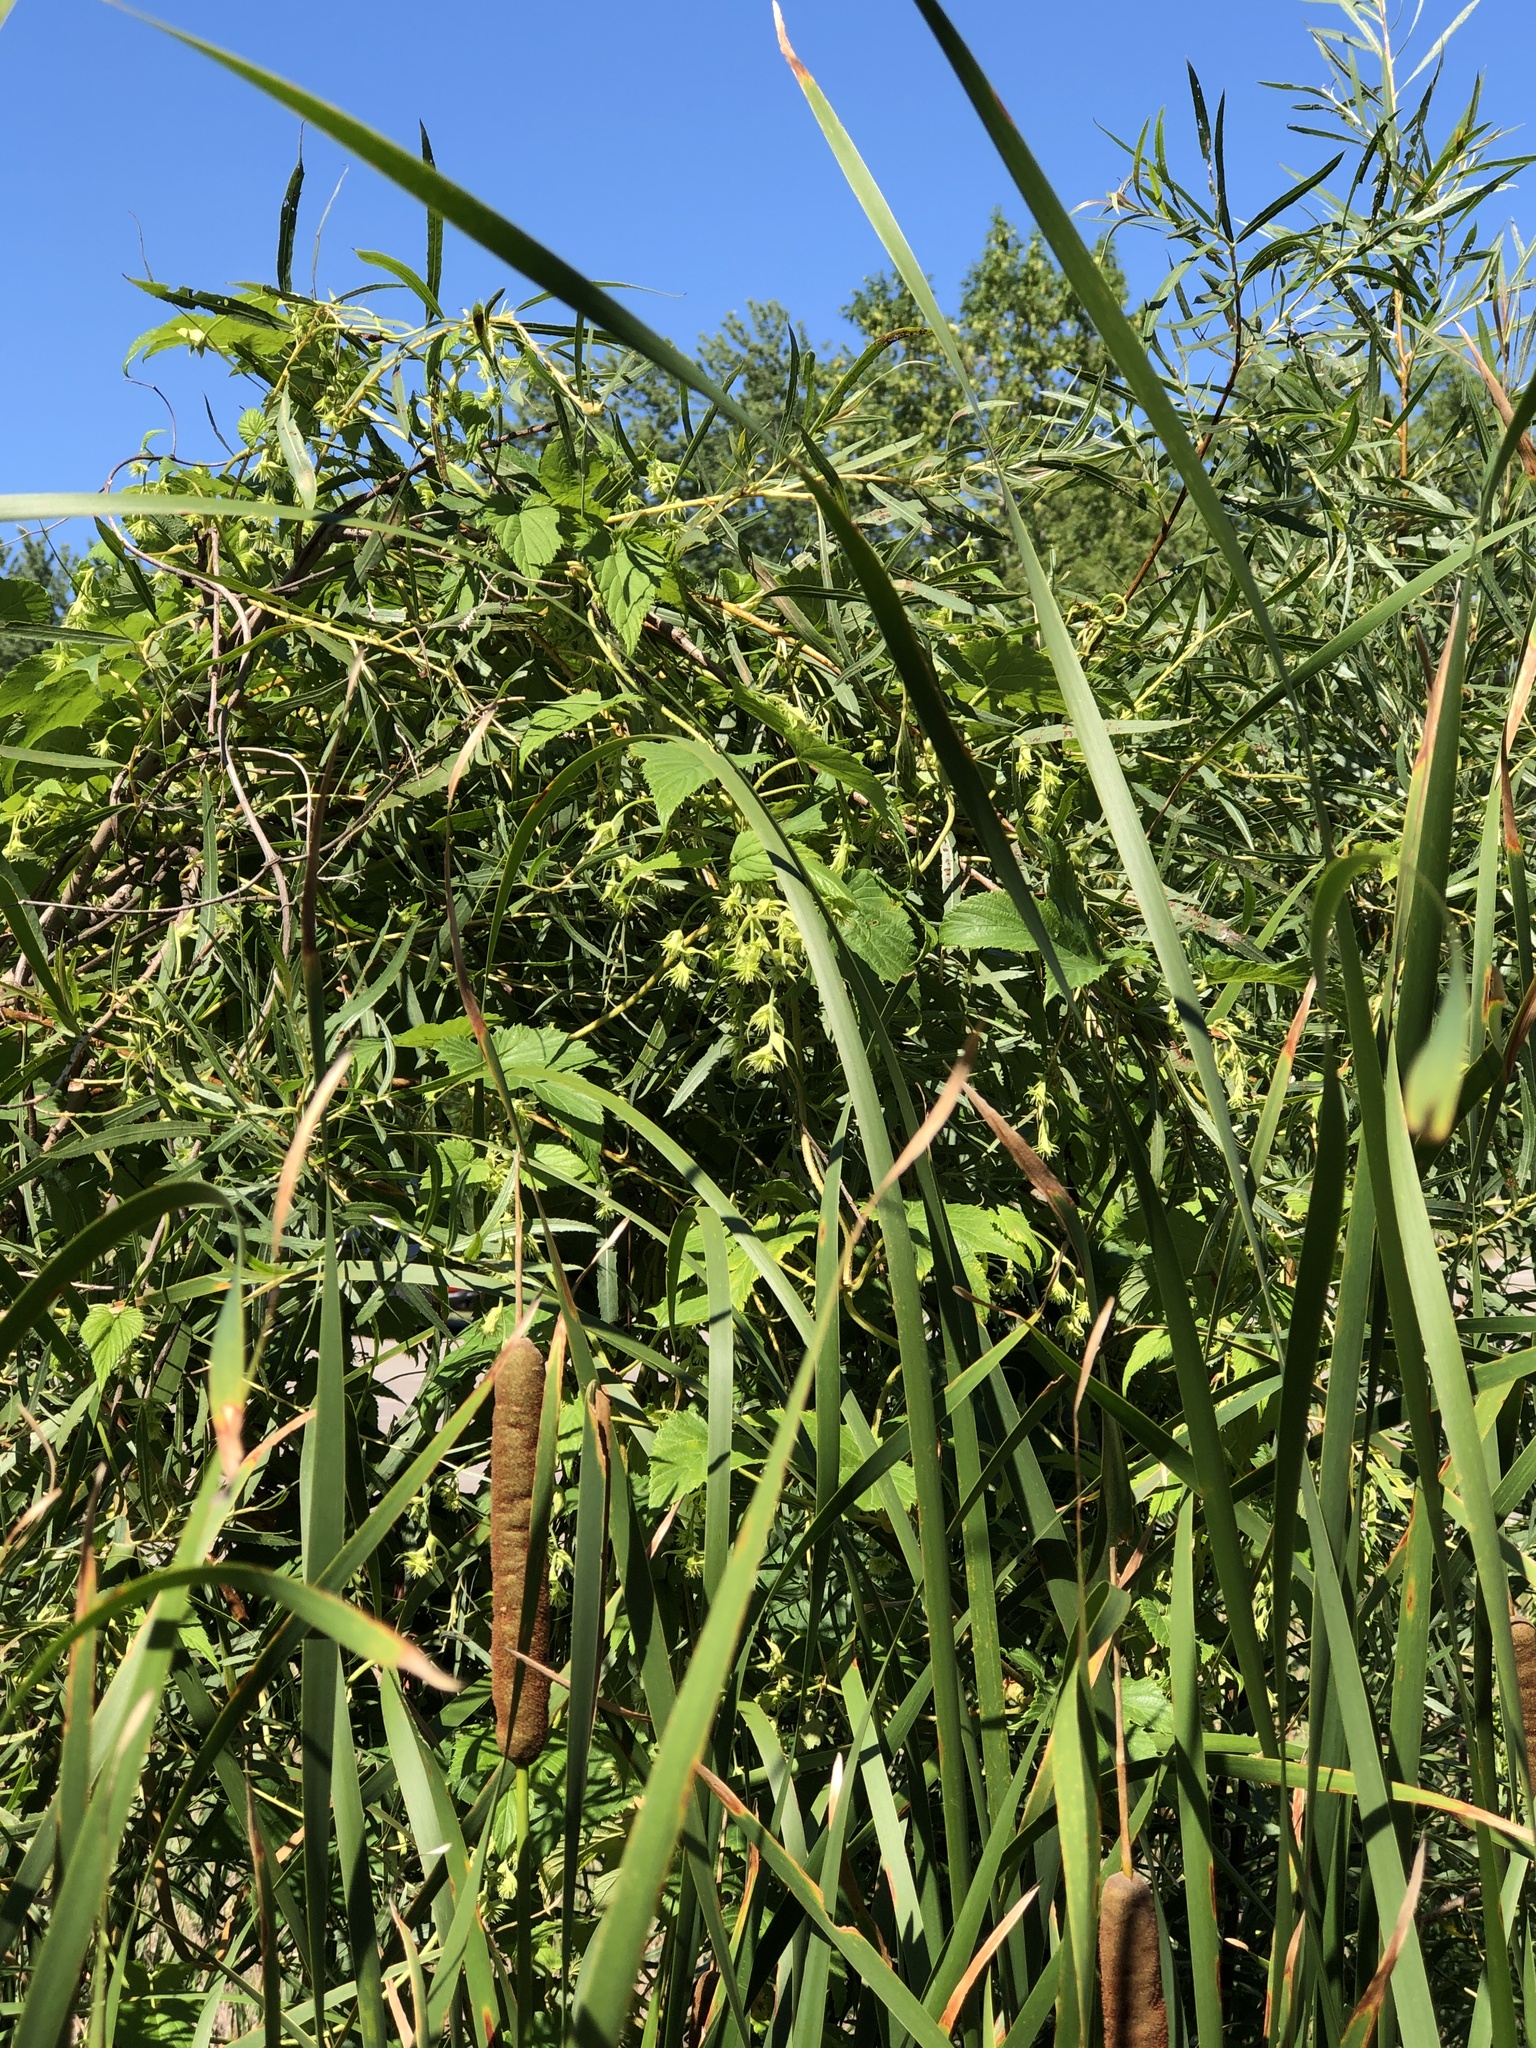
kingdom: Plantae
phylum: Tracheophyta
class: Magnoliopsida
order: Rosales
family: Cannabaceae
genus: Humulus
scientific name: Humulus lupulus
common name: Hop
